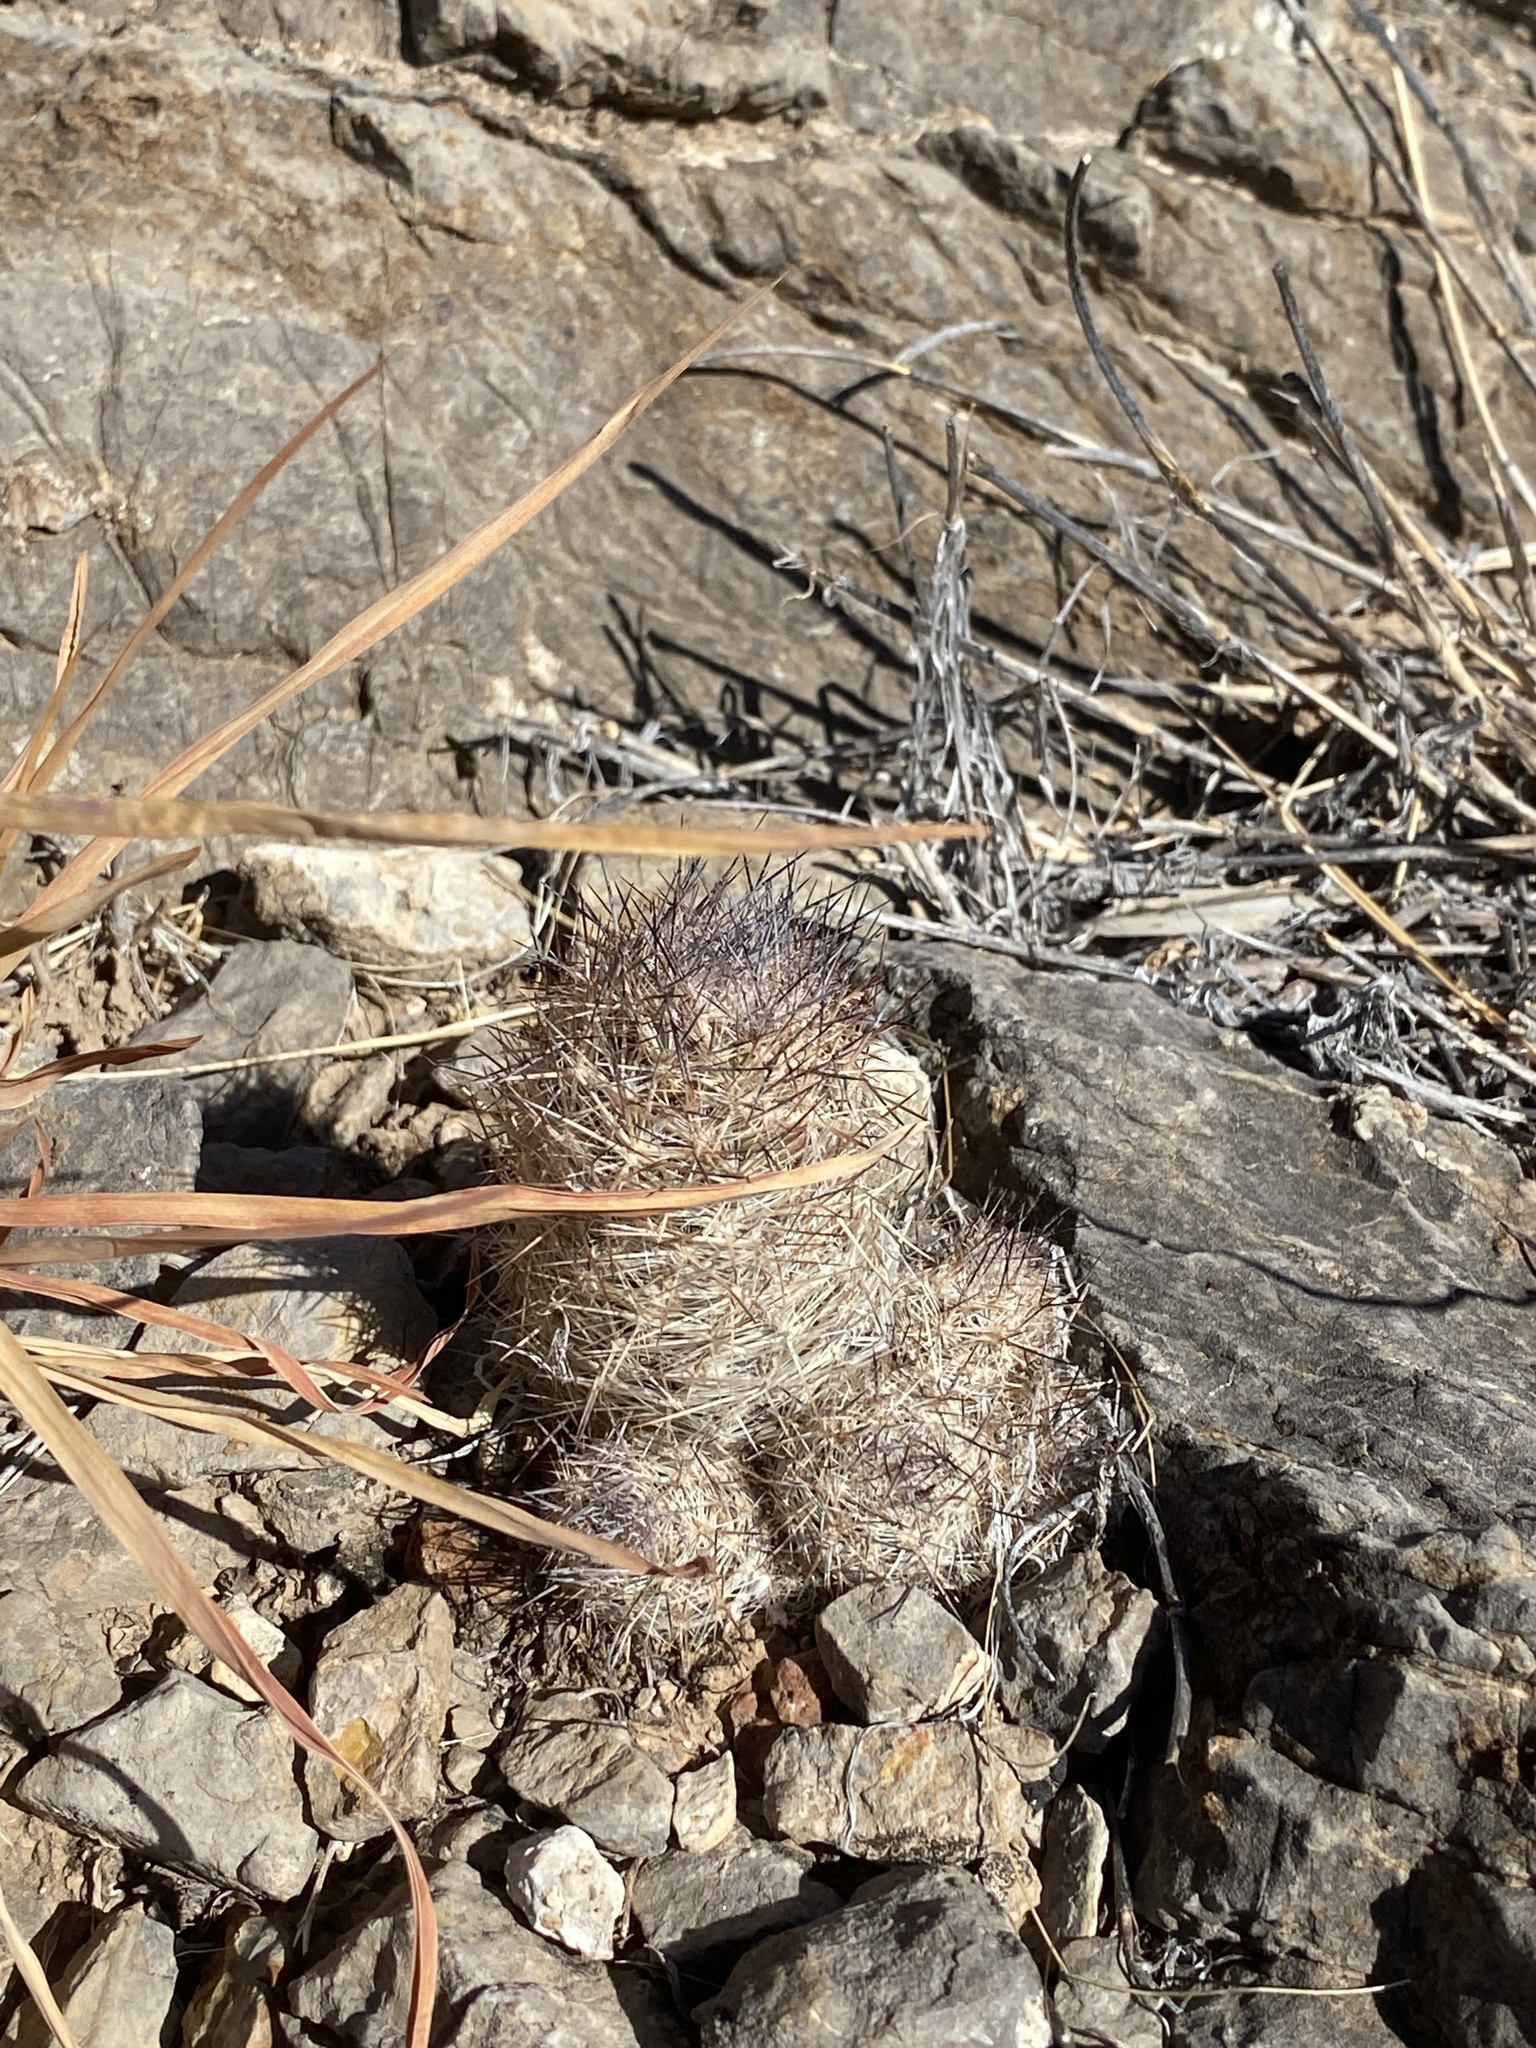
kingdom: Plantae
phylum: Tracheophyta
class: Magnoliopsida
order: Caryophyllales
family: Cactaceae
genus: Pelecyphora
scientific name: Pelecyphora tuberculosa
